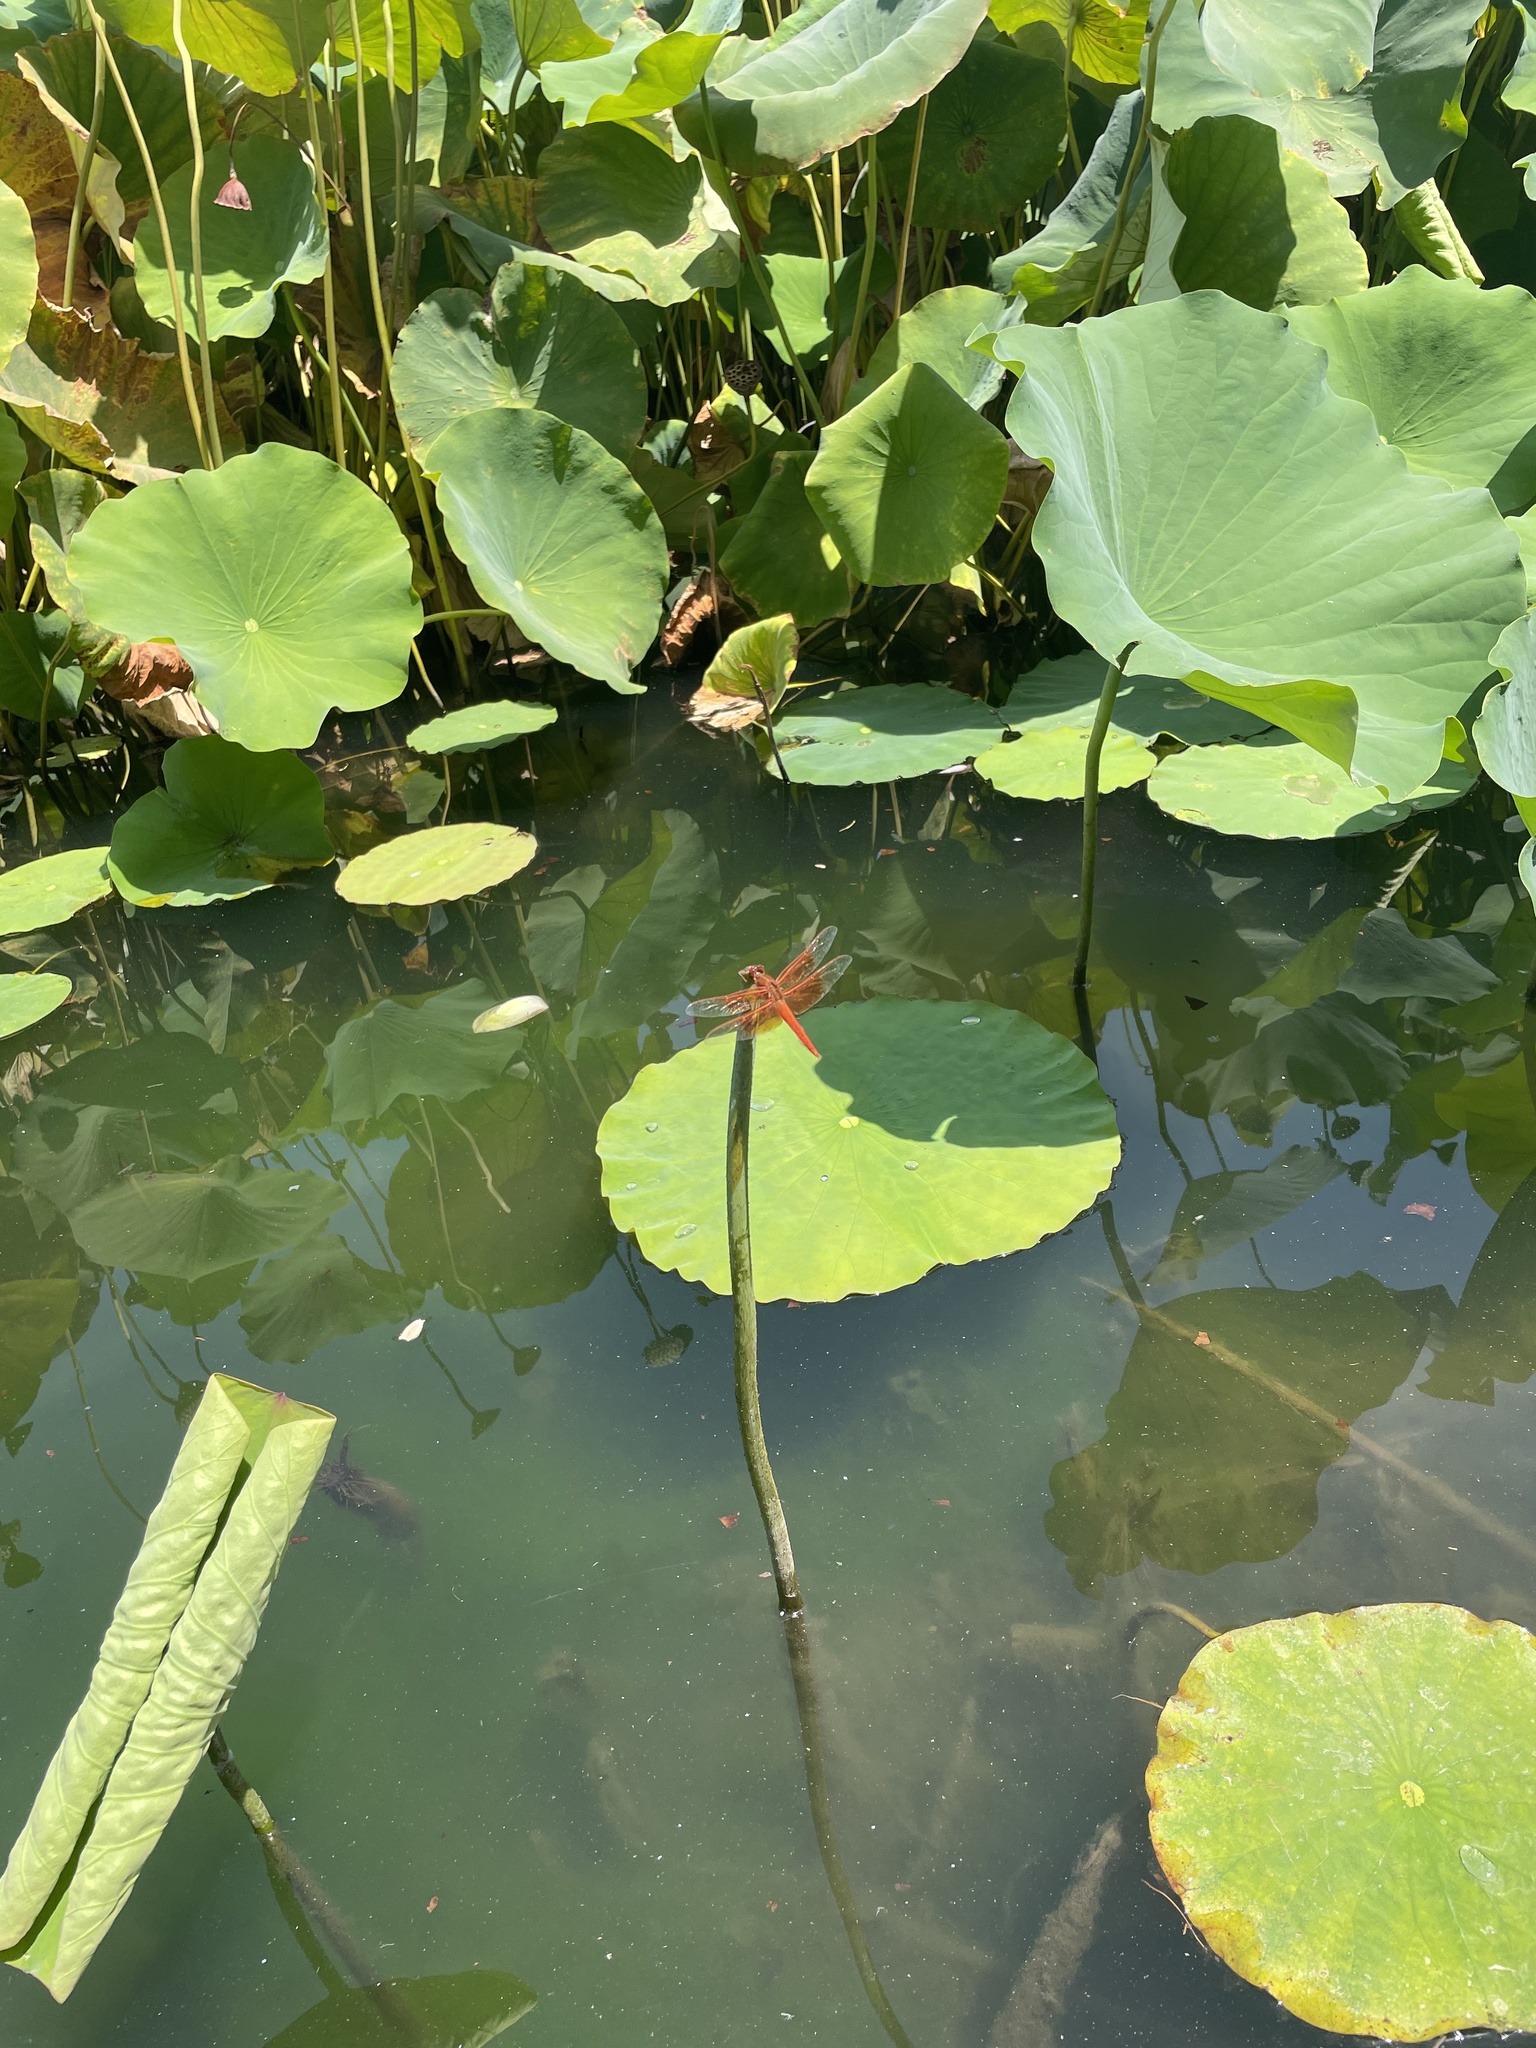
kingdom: Animalia
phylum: Arthropoda
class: Insecta
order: Odonata
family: Libellulidae
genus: Libellula
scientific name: Libellula saturata
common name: Flame skimmer
